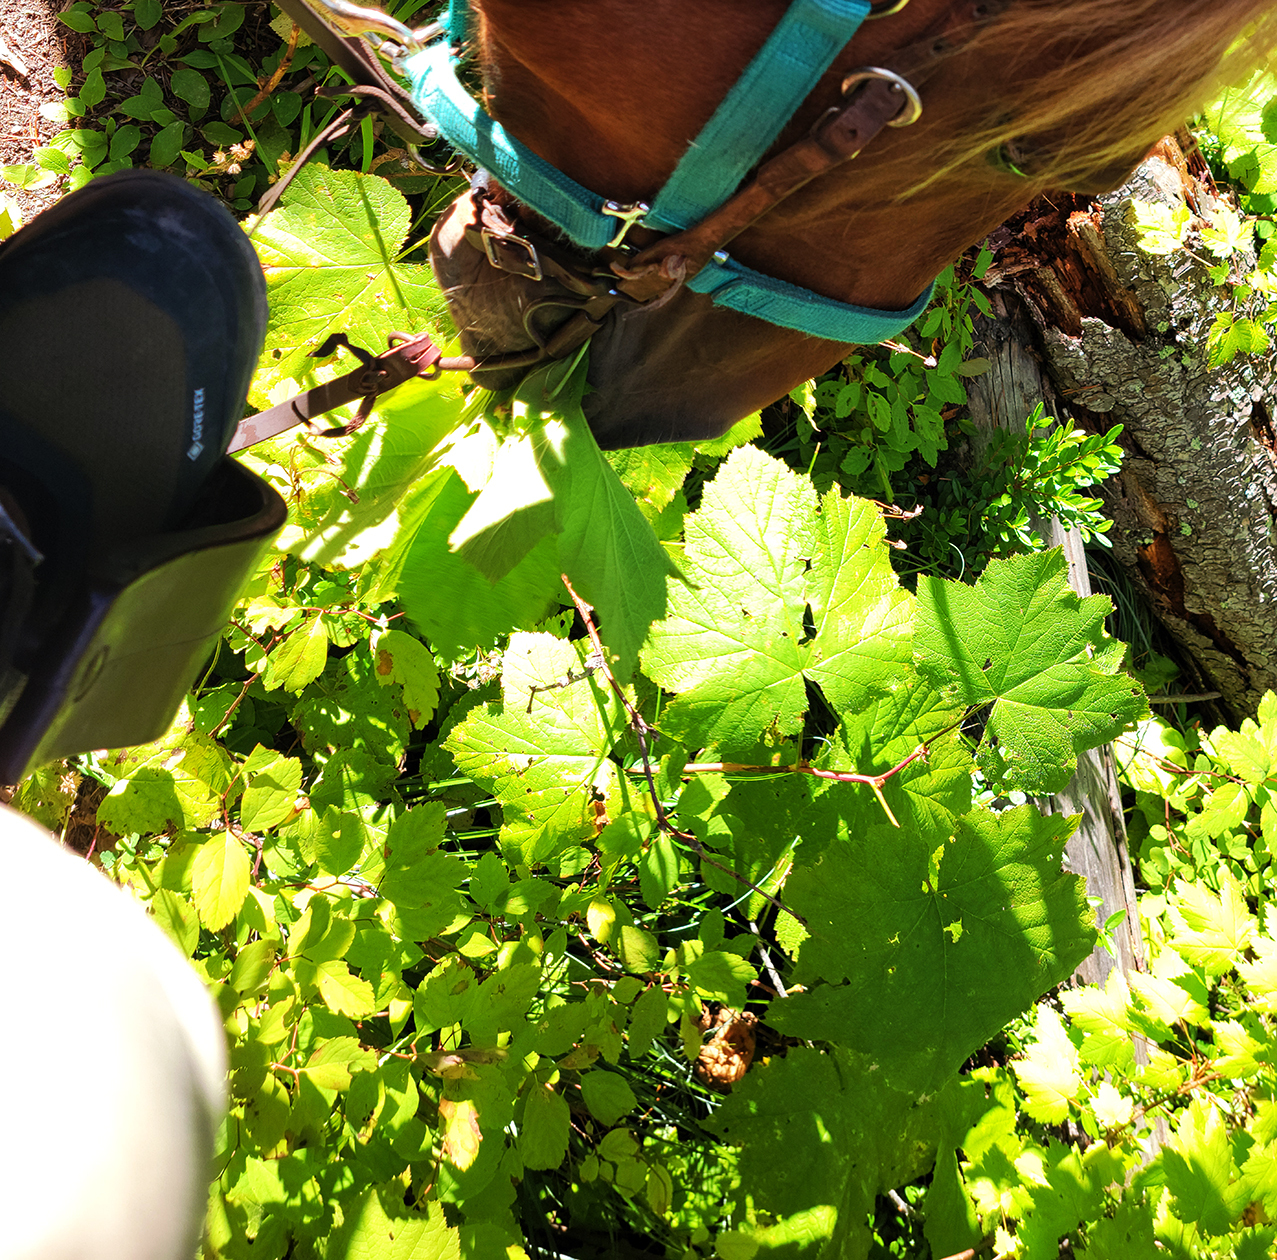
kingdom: Plantae
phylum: Tracheophyta
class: Magnoliopsida
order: Rosales
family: Rosaceae
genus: Rubus
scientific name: Rubus parviflorus
